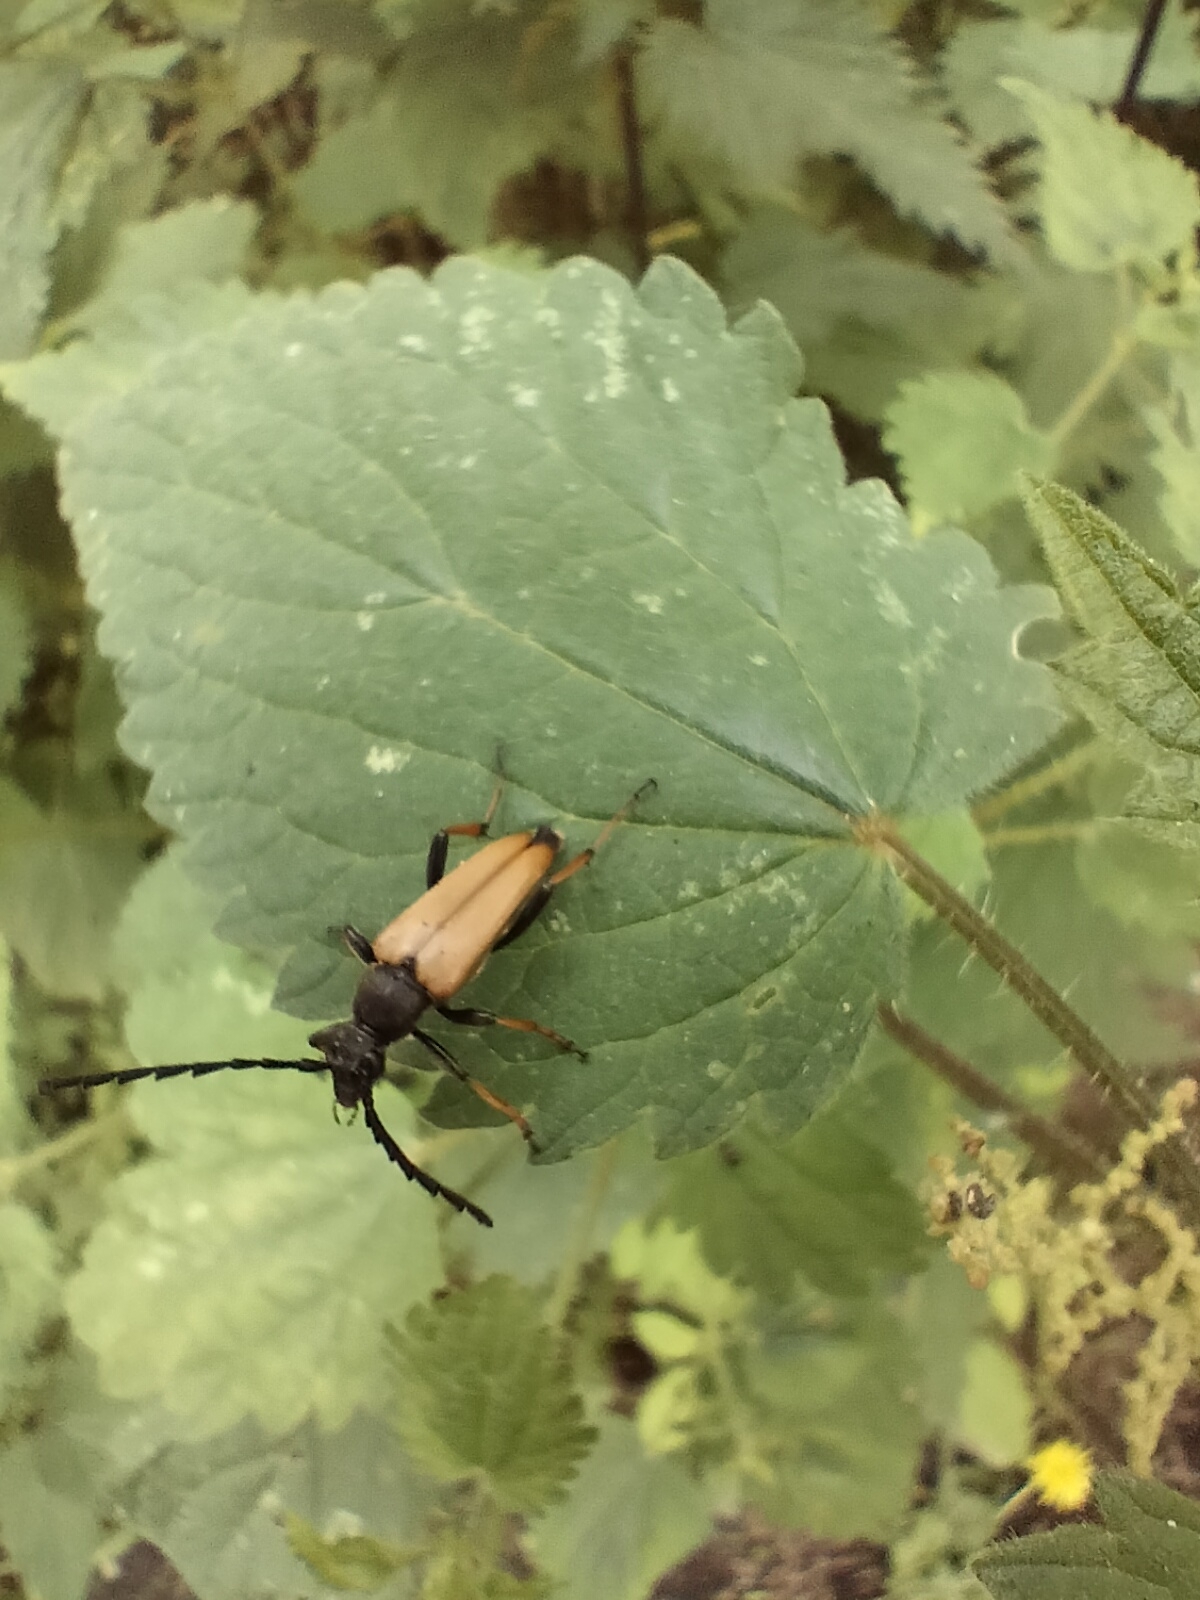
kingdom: Animalia
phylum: Arthropoda
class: Insecta
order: Coleoptera
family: Cerambycidae
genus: Stictoleptura
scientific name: Stictoleptura rubra
